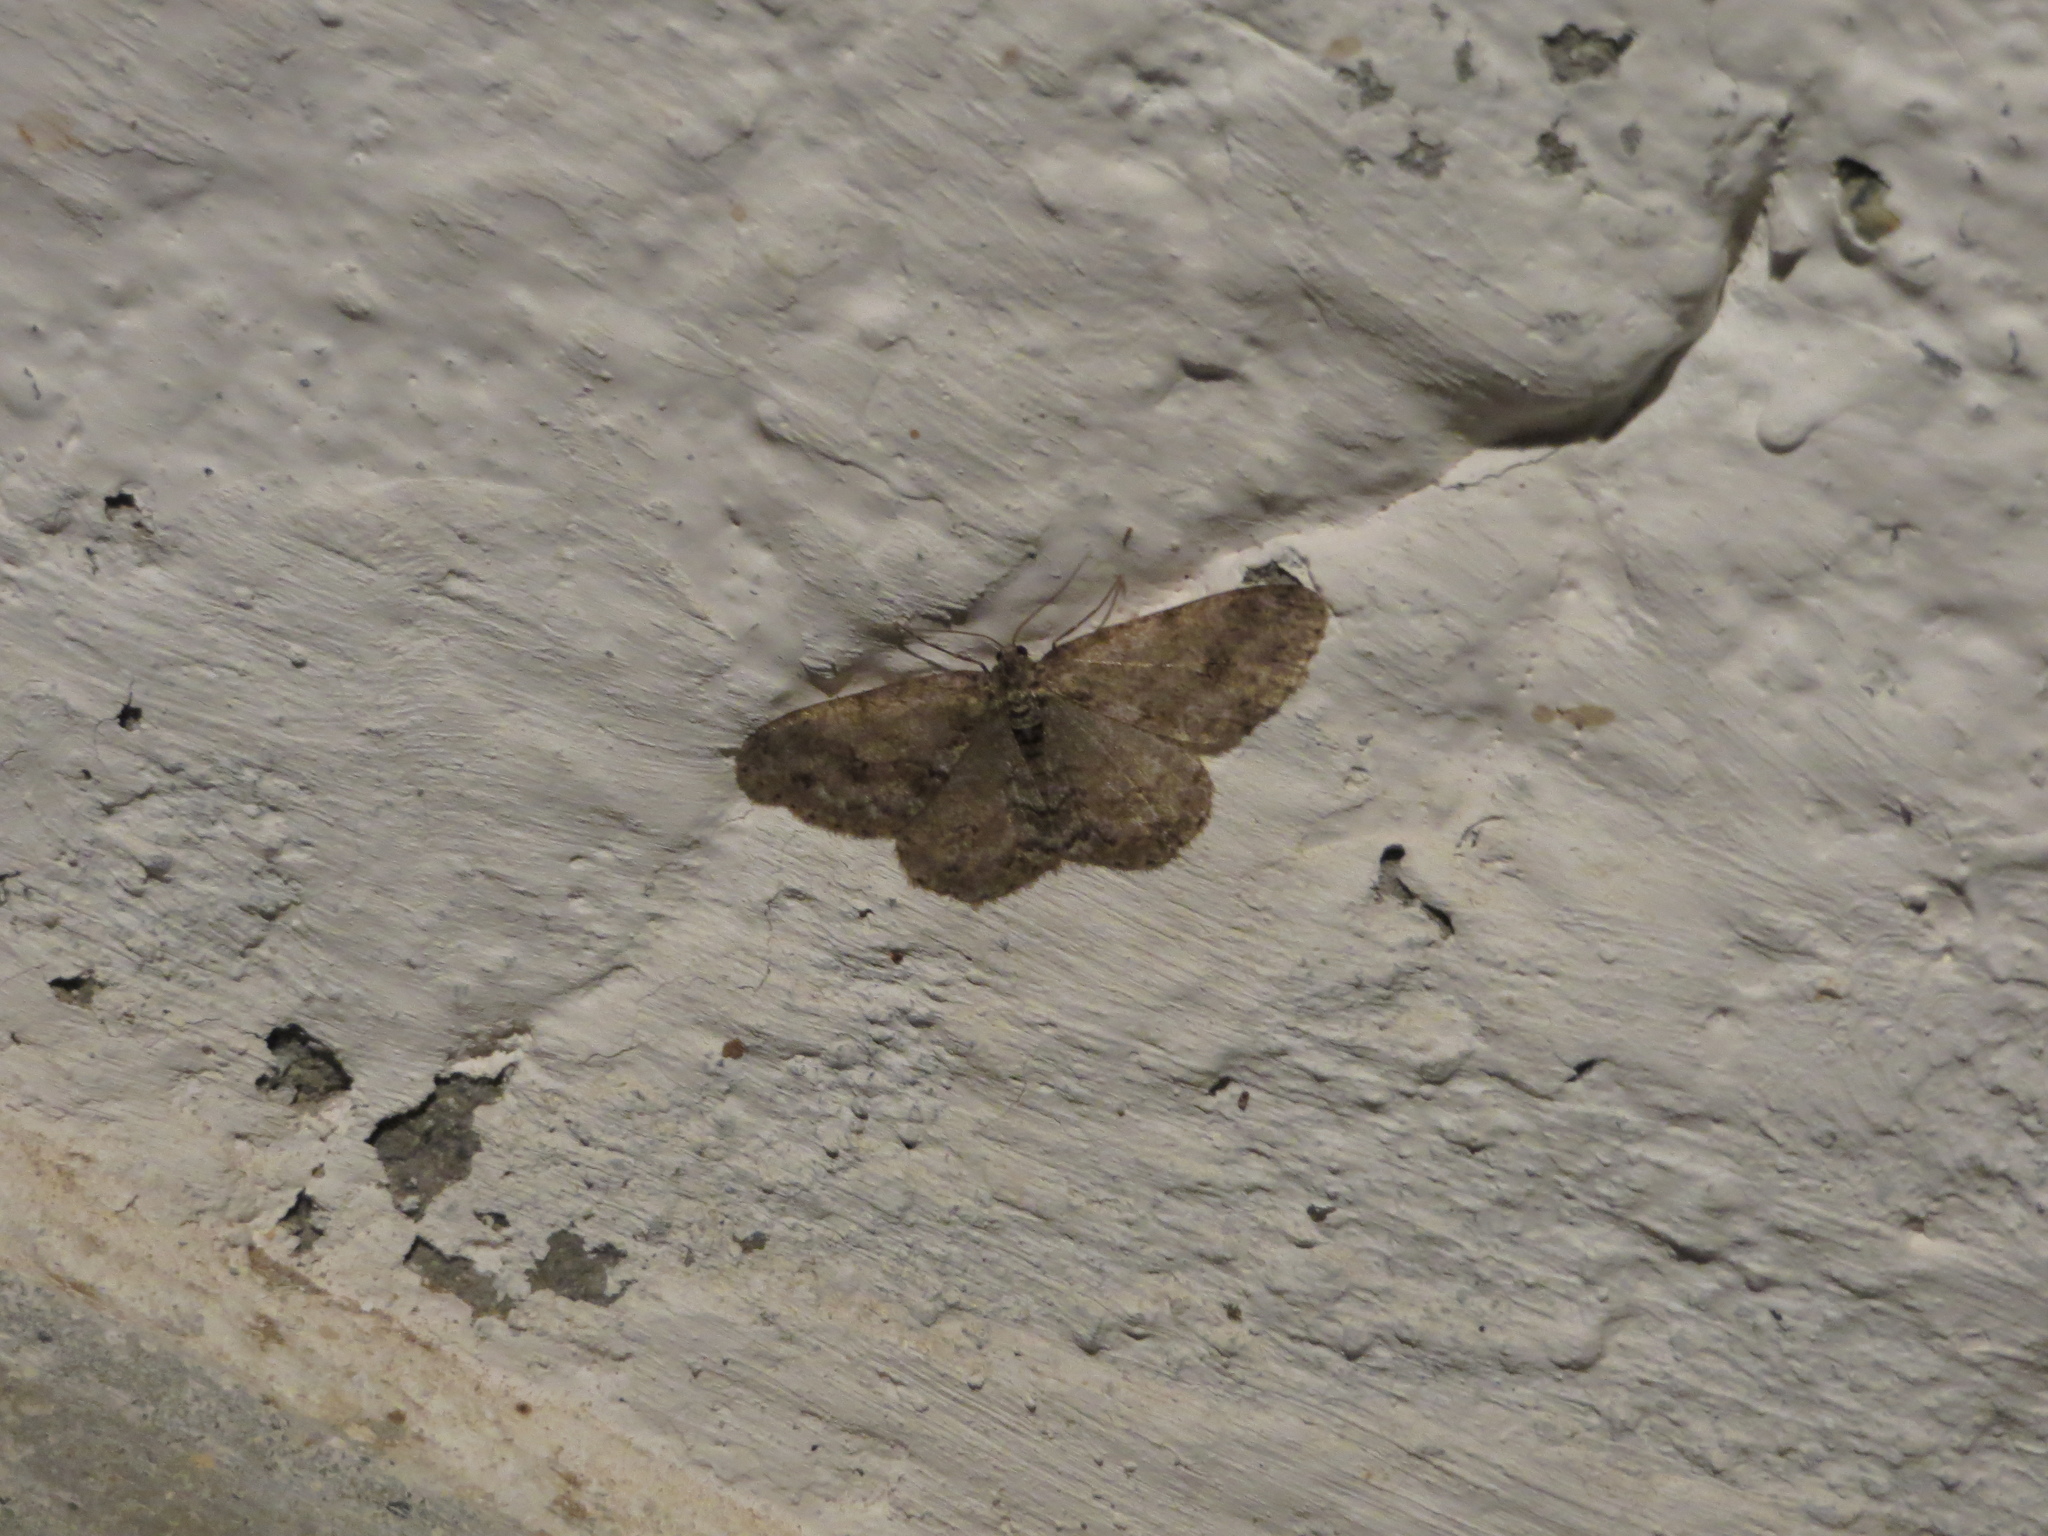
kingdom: Animalia
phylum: Arthropoda
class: Insecta
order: Lepidoptera
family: Geometridae
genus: Ectropis
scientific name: Ectropis crepuscularia
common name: Engrailed
